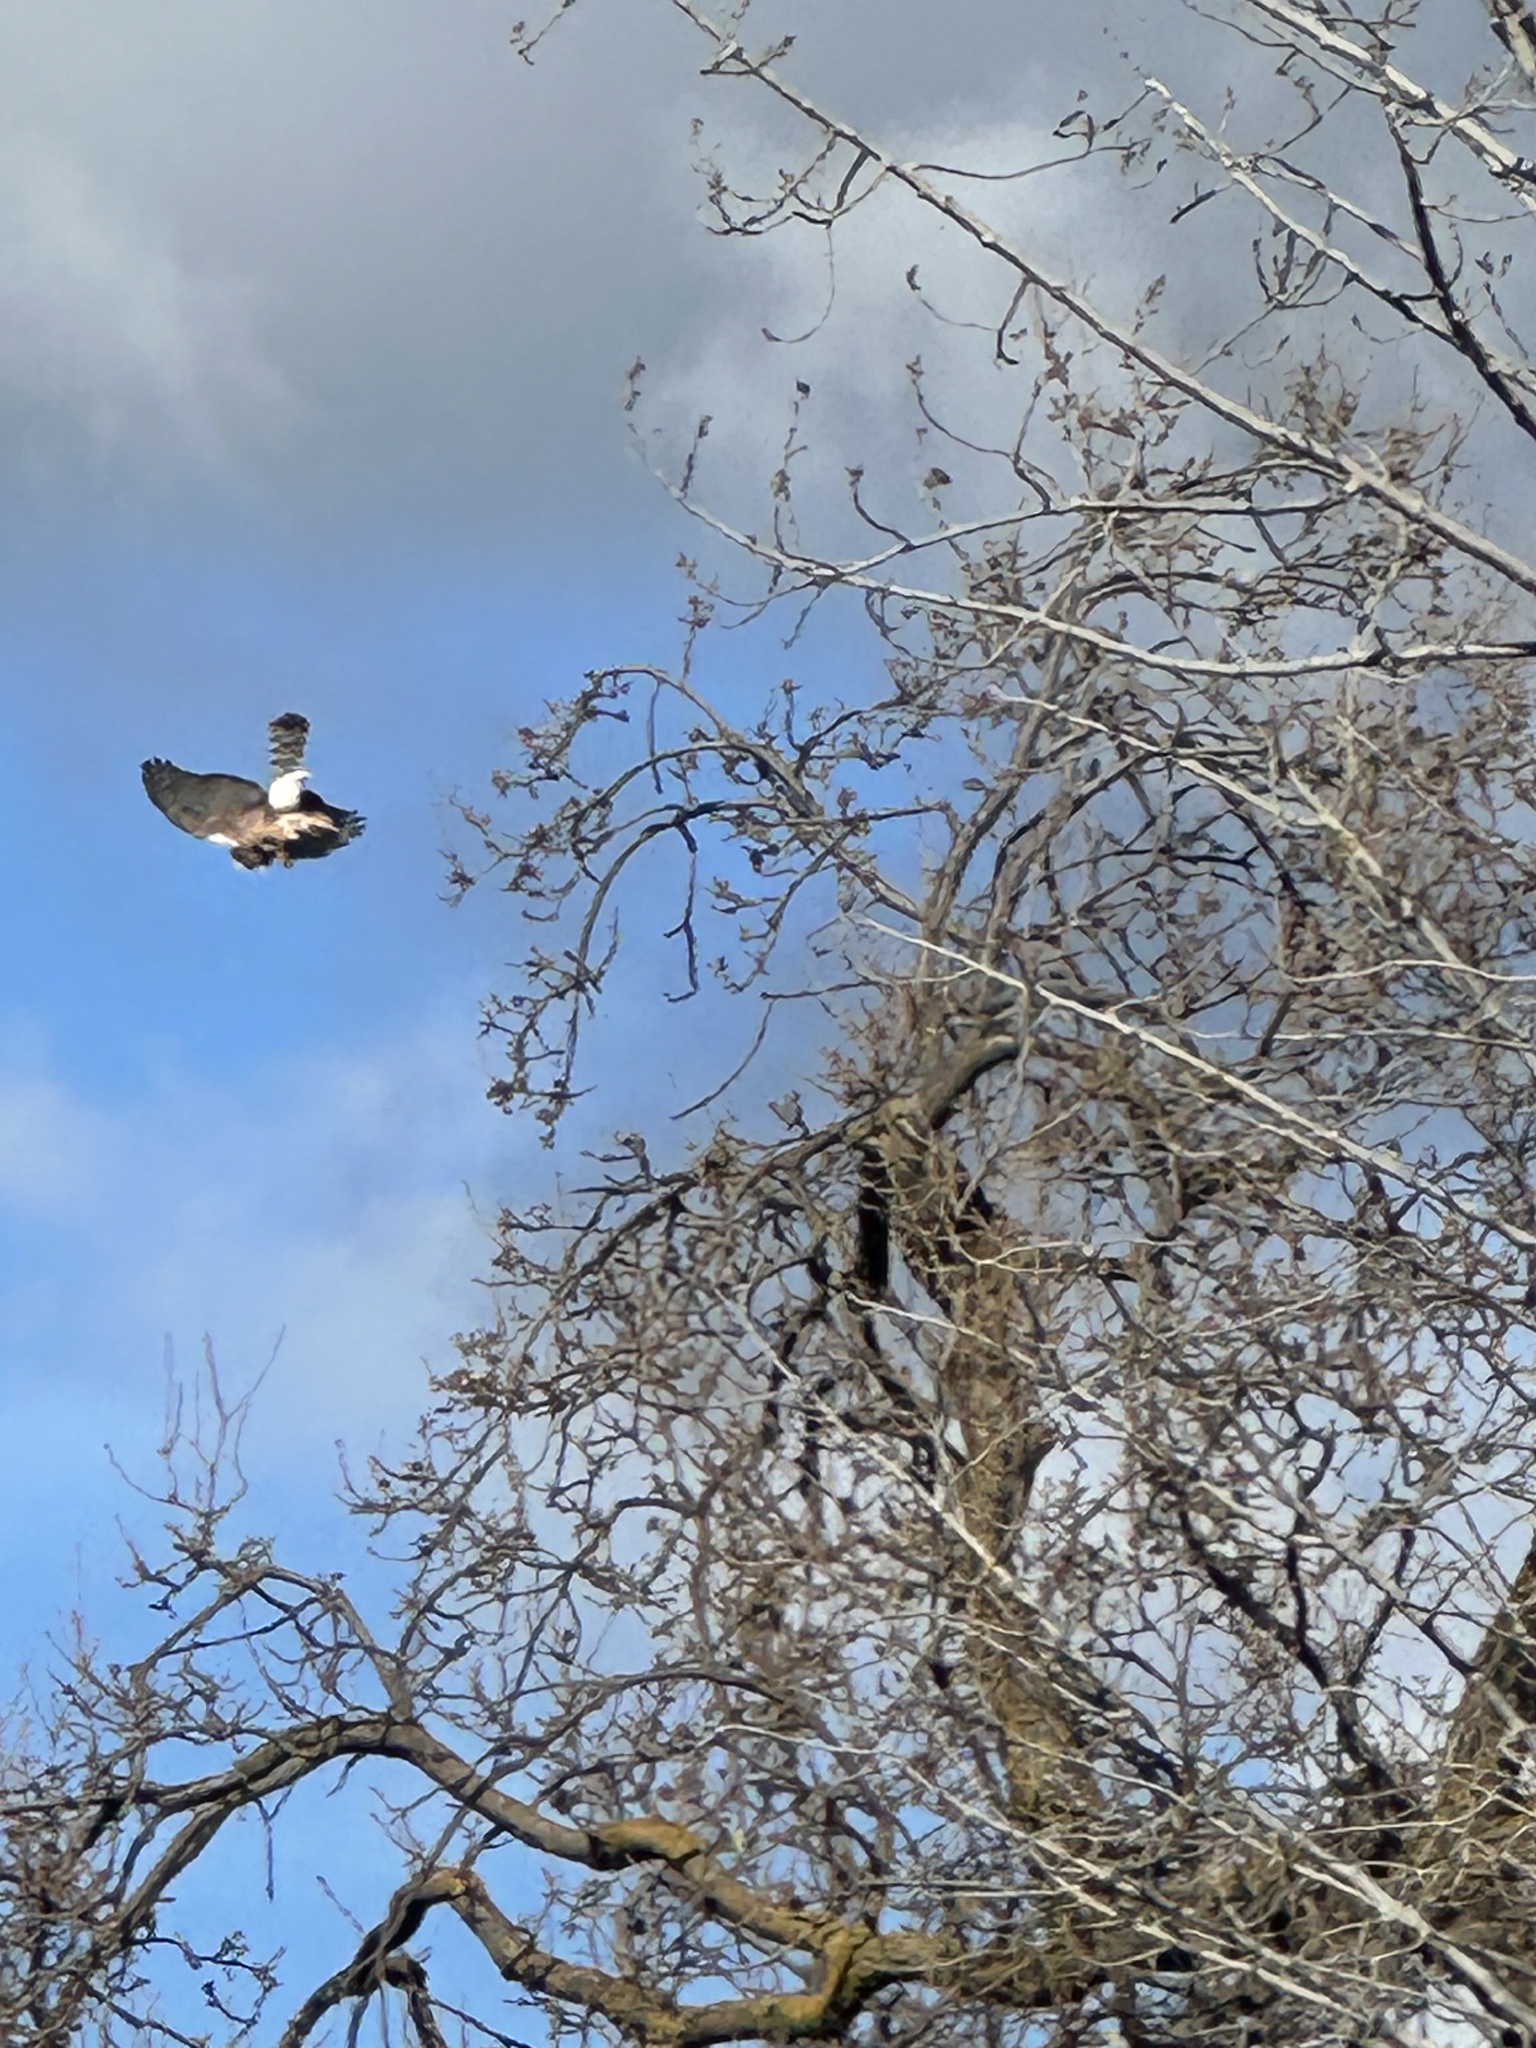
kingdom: Animalia
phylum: Chordata
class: Aves
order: Accipitriformes
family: Accipitridae
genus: Accipiter
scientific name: Accipiter cooperii
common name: Cooper's hawk
